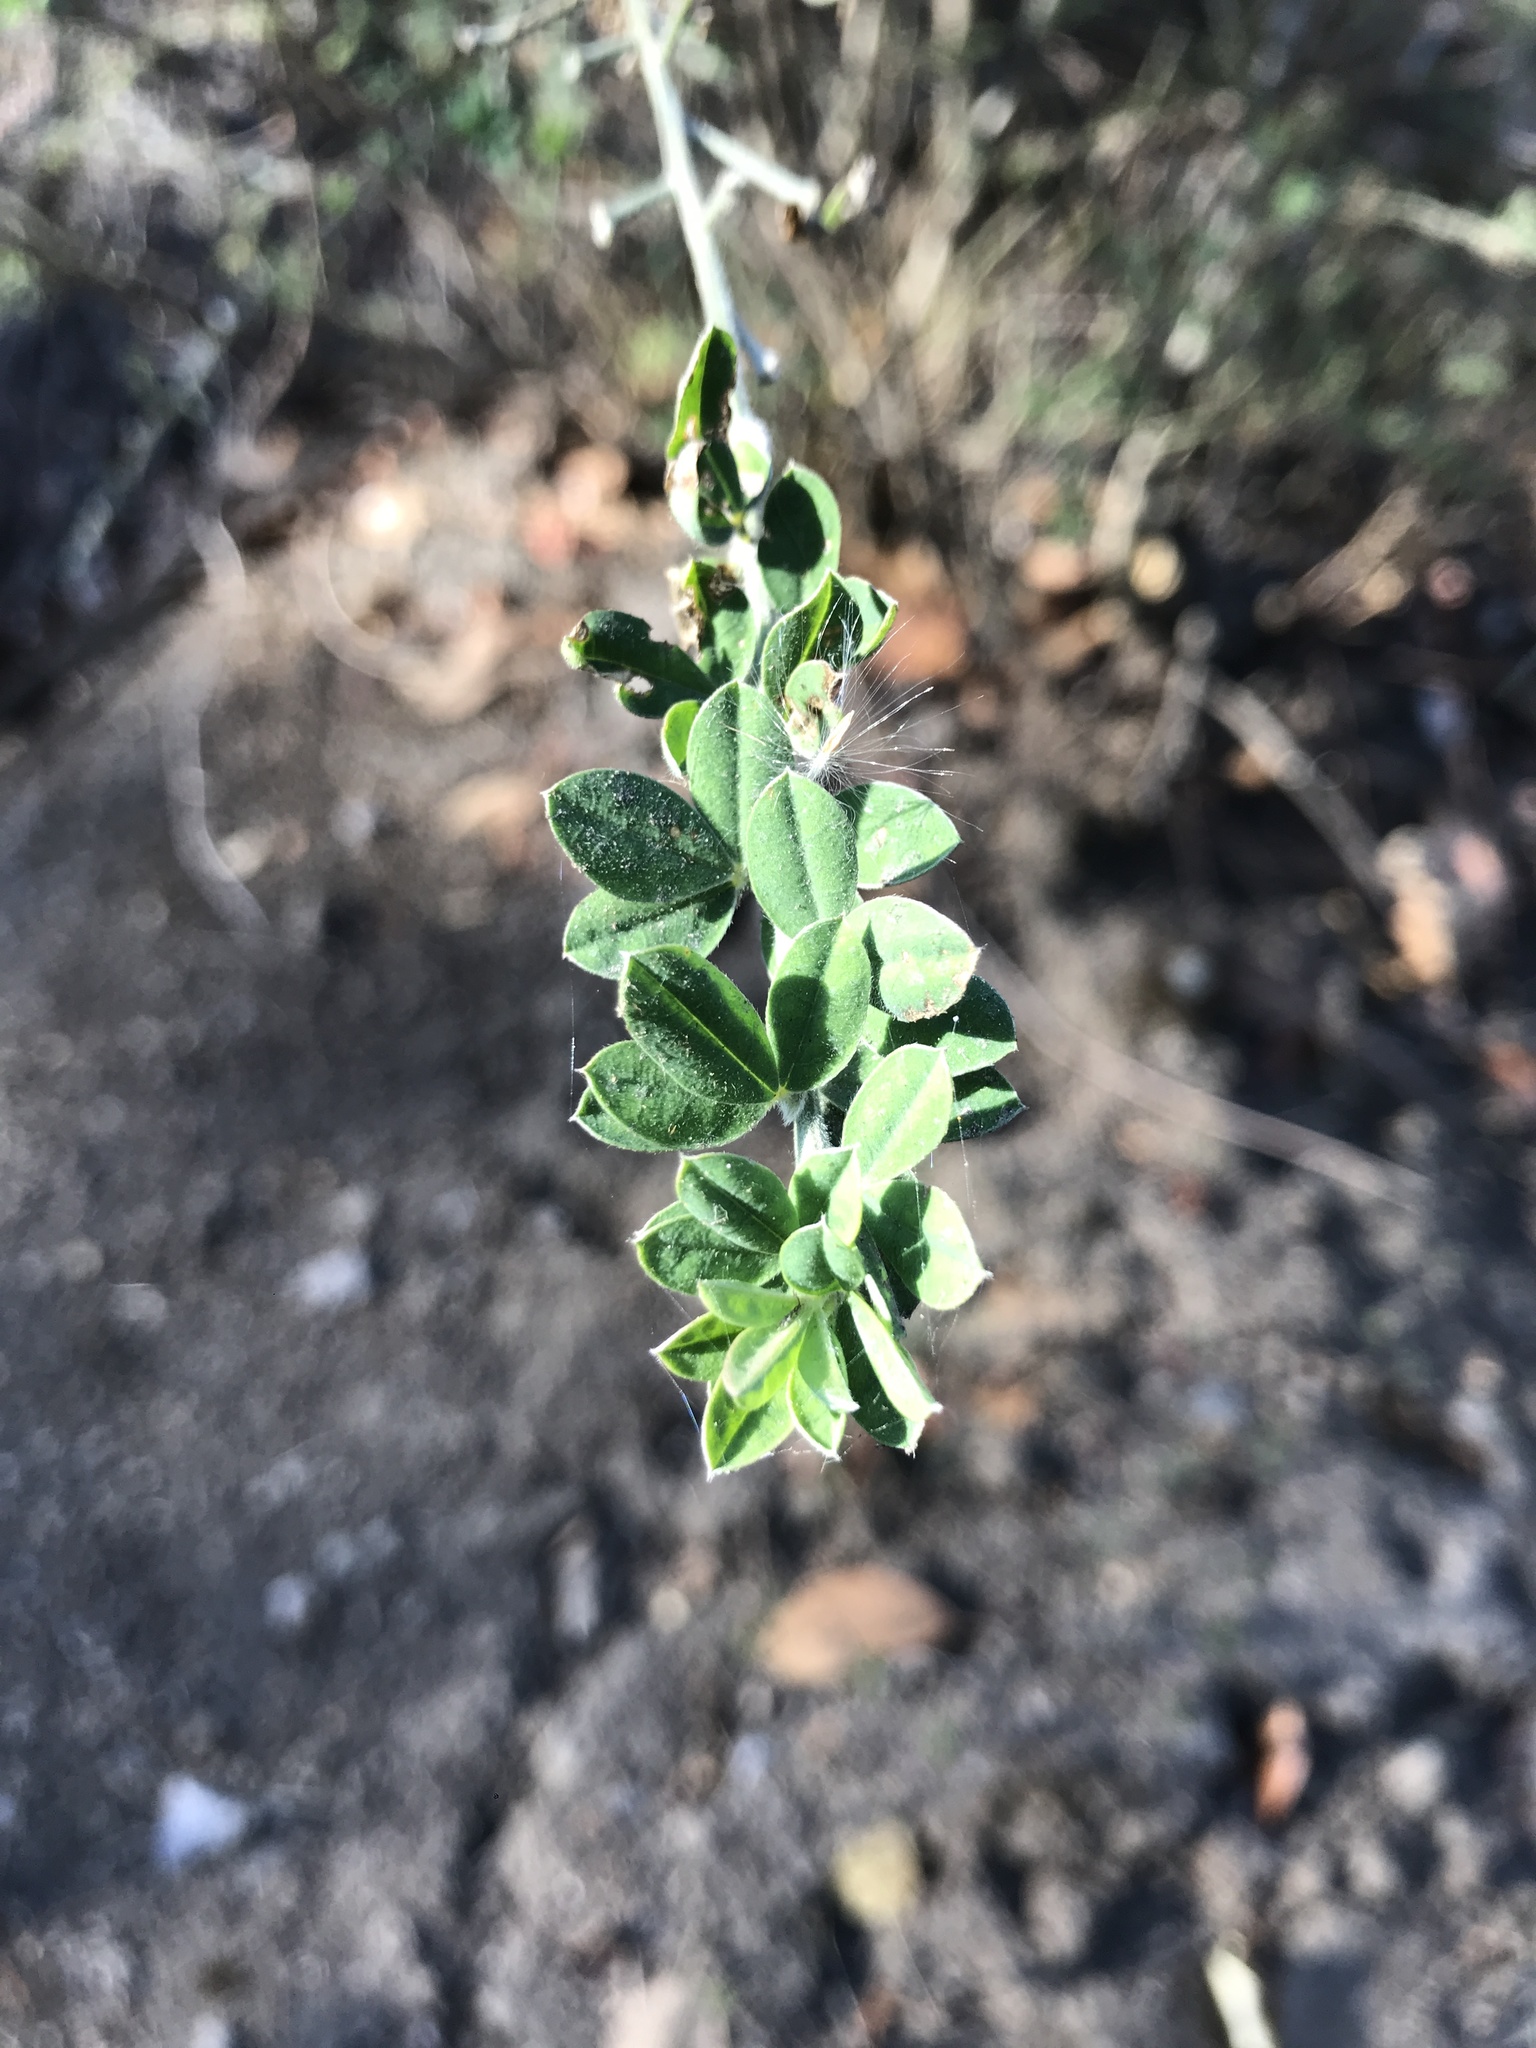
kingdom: Plantae
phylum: Tracheophyta
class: Magnoliopsida
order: Fabales
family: Fabaceae
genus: Genista
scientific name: Genista monspessulana
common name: Montpellier broom
